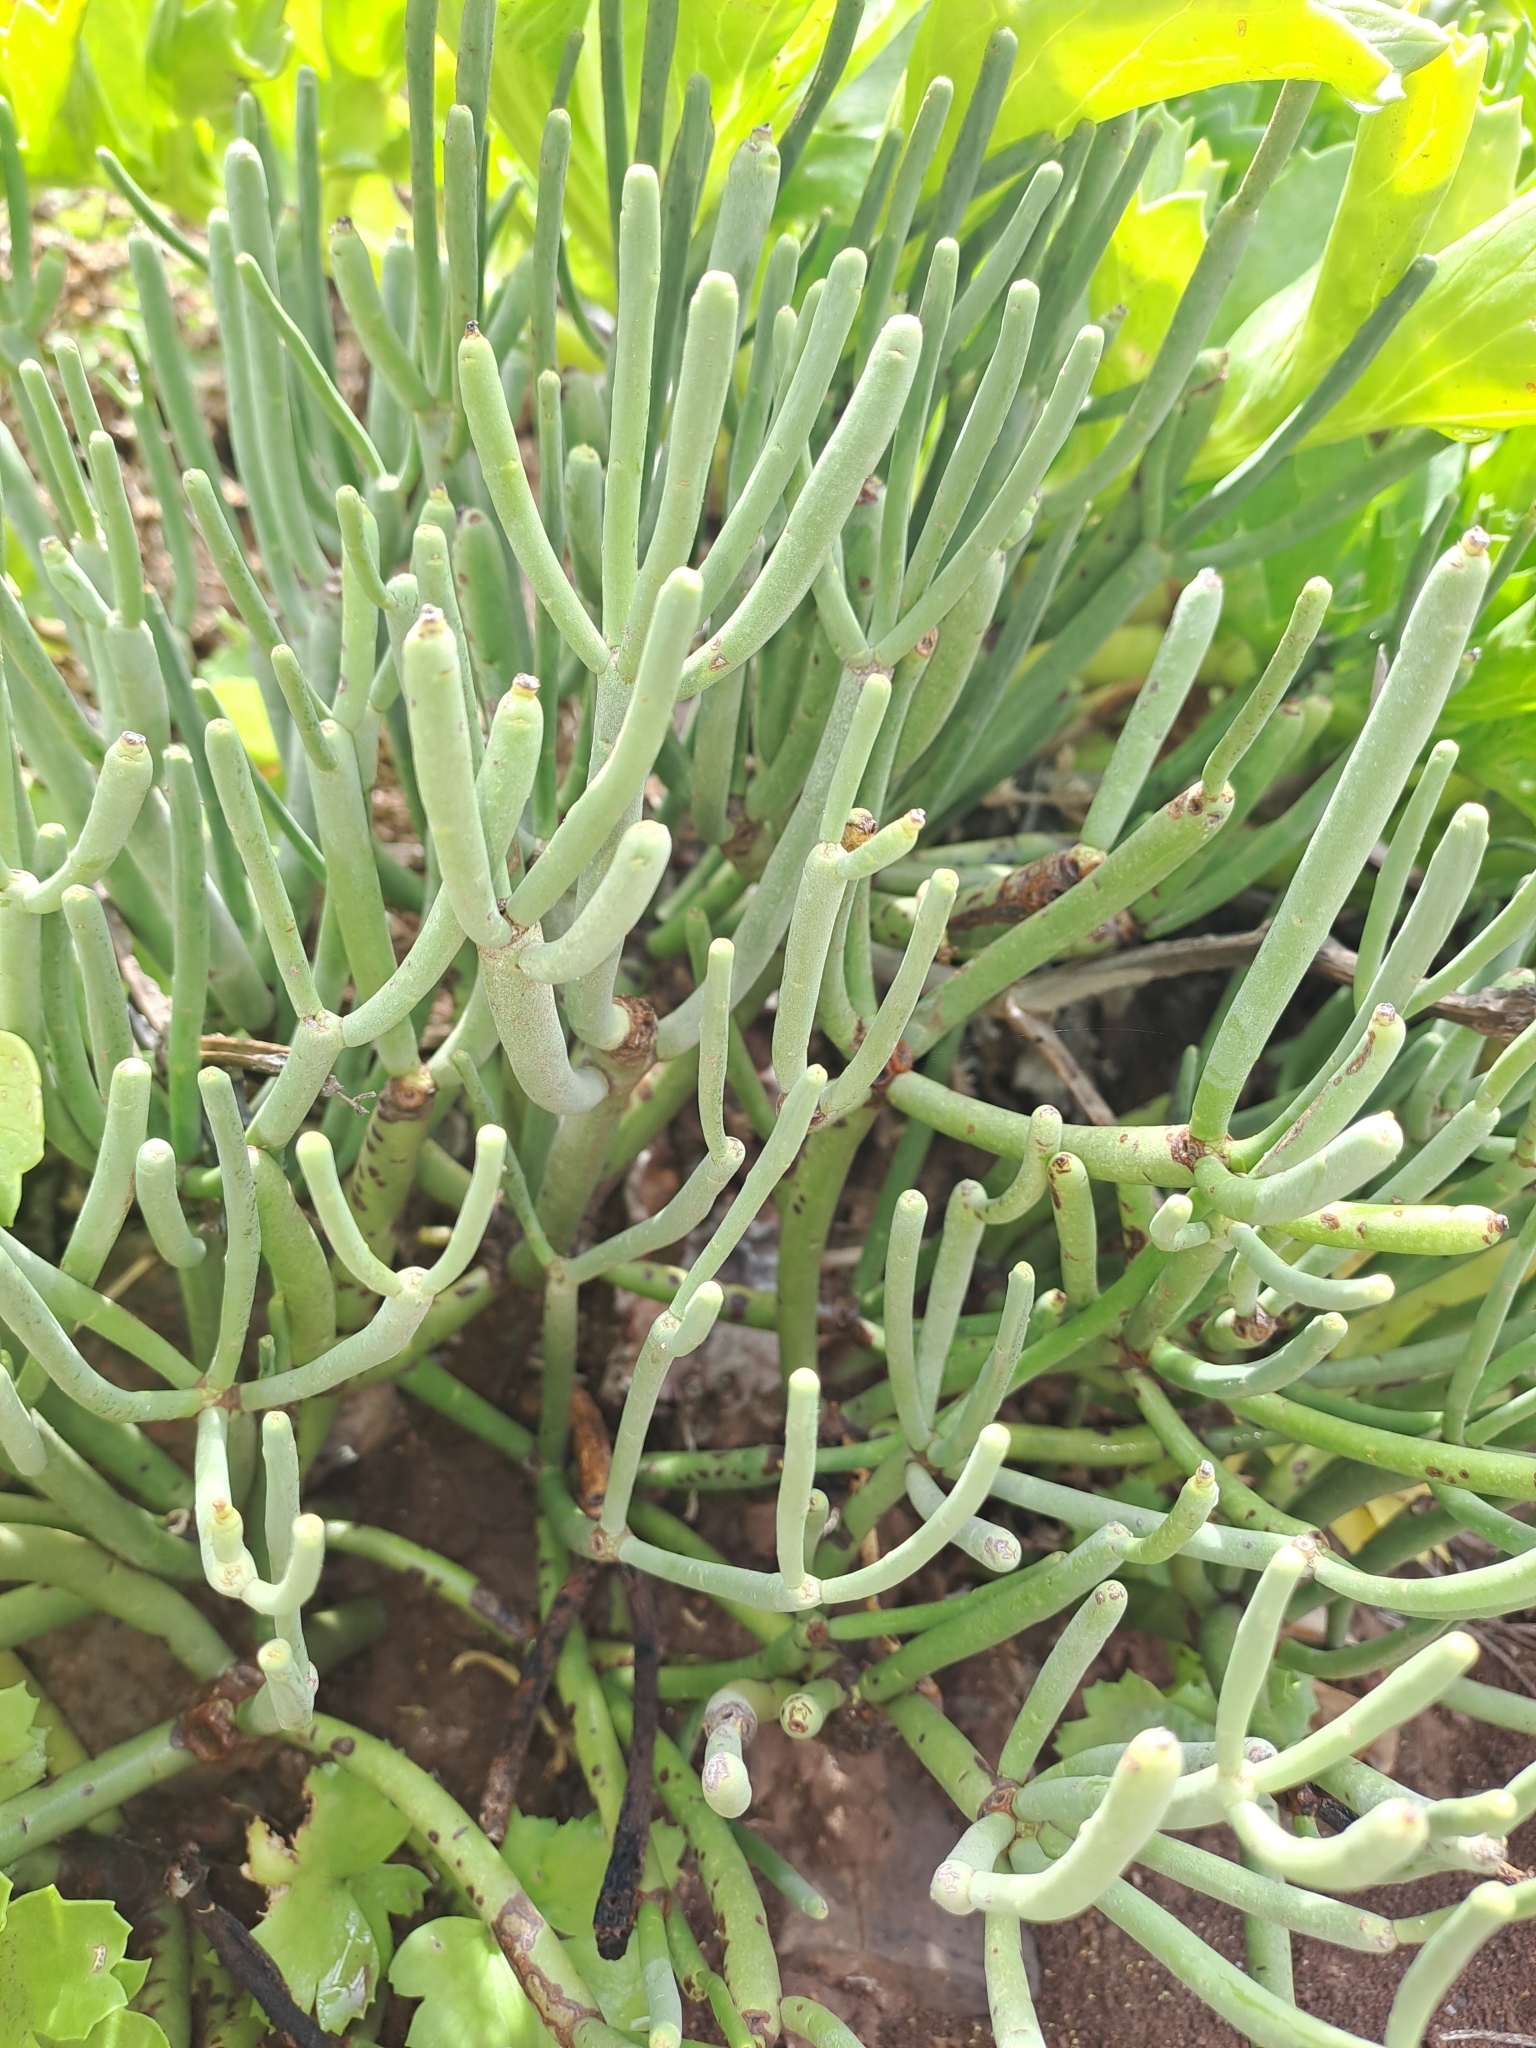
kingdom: Plantae
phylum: Tracheophyta
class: Magnoliopsida
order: Malpighiales
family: Euphorbiaceae
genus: Euphorbia
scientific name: Euphorbia aphylla
